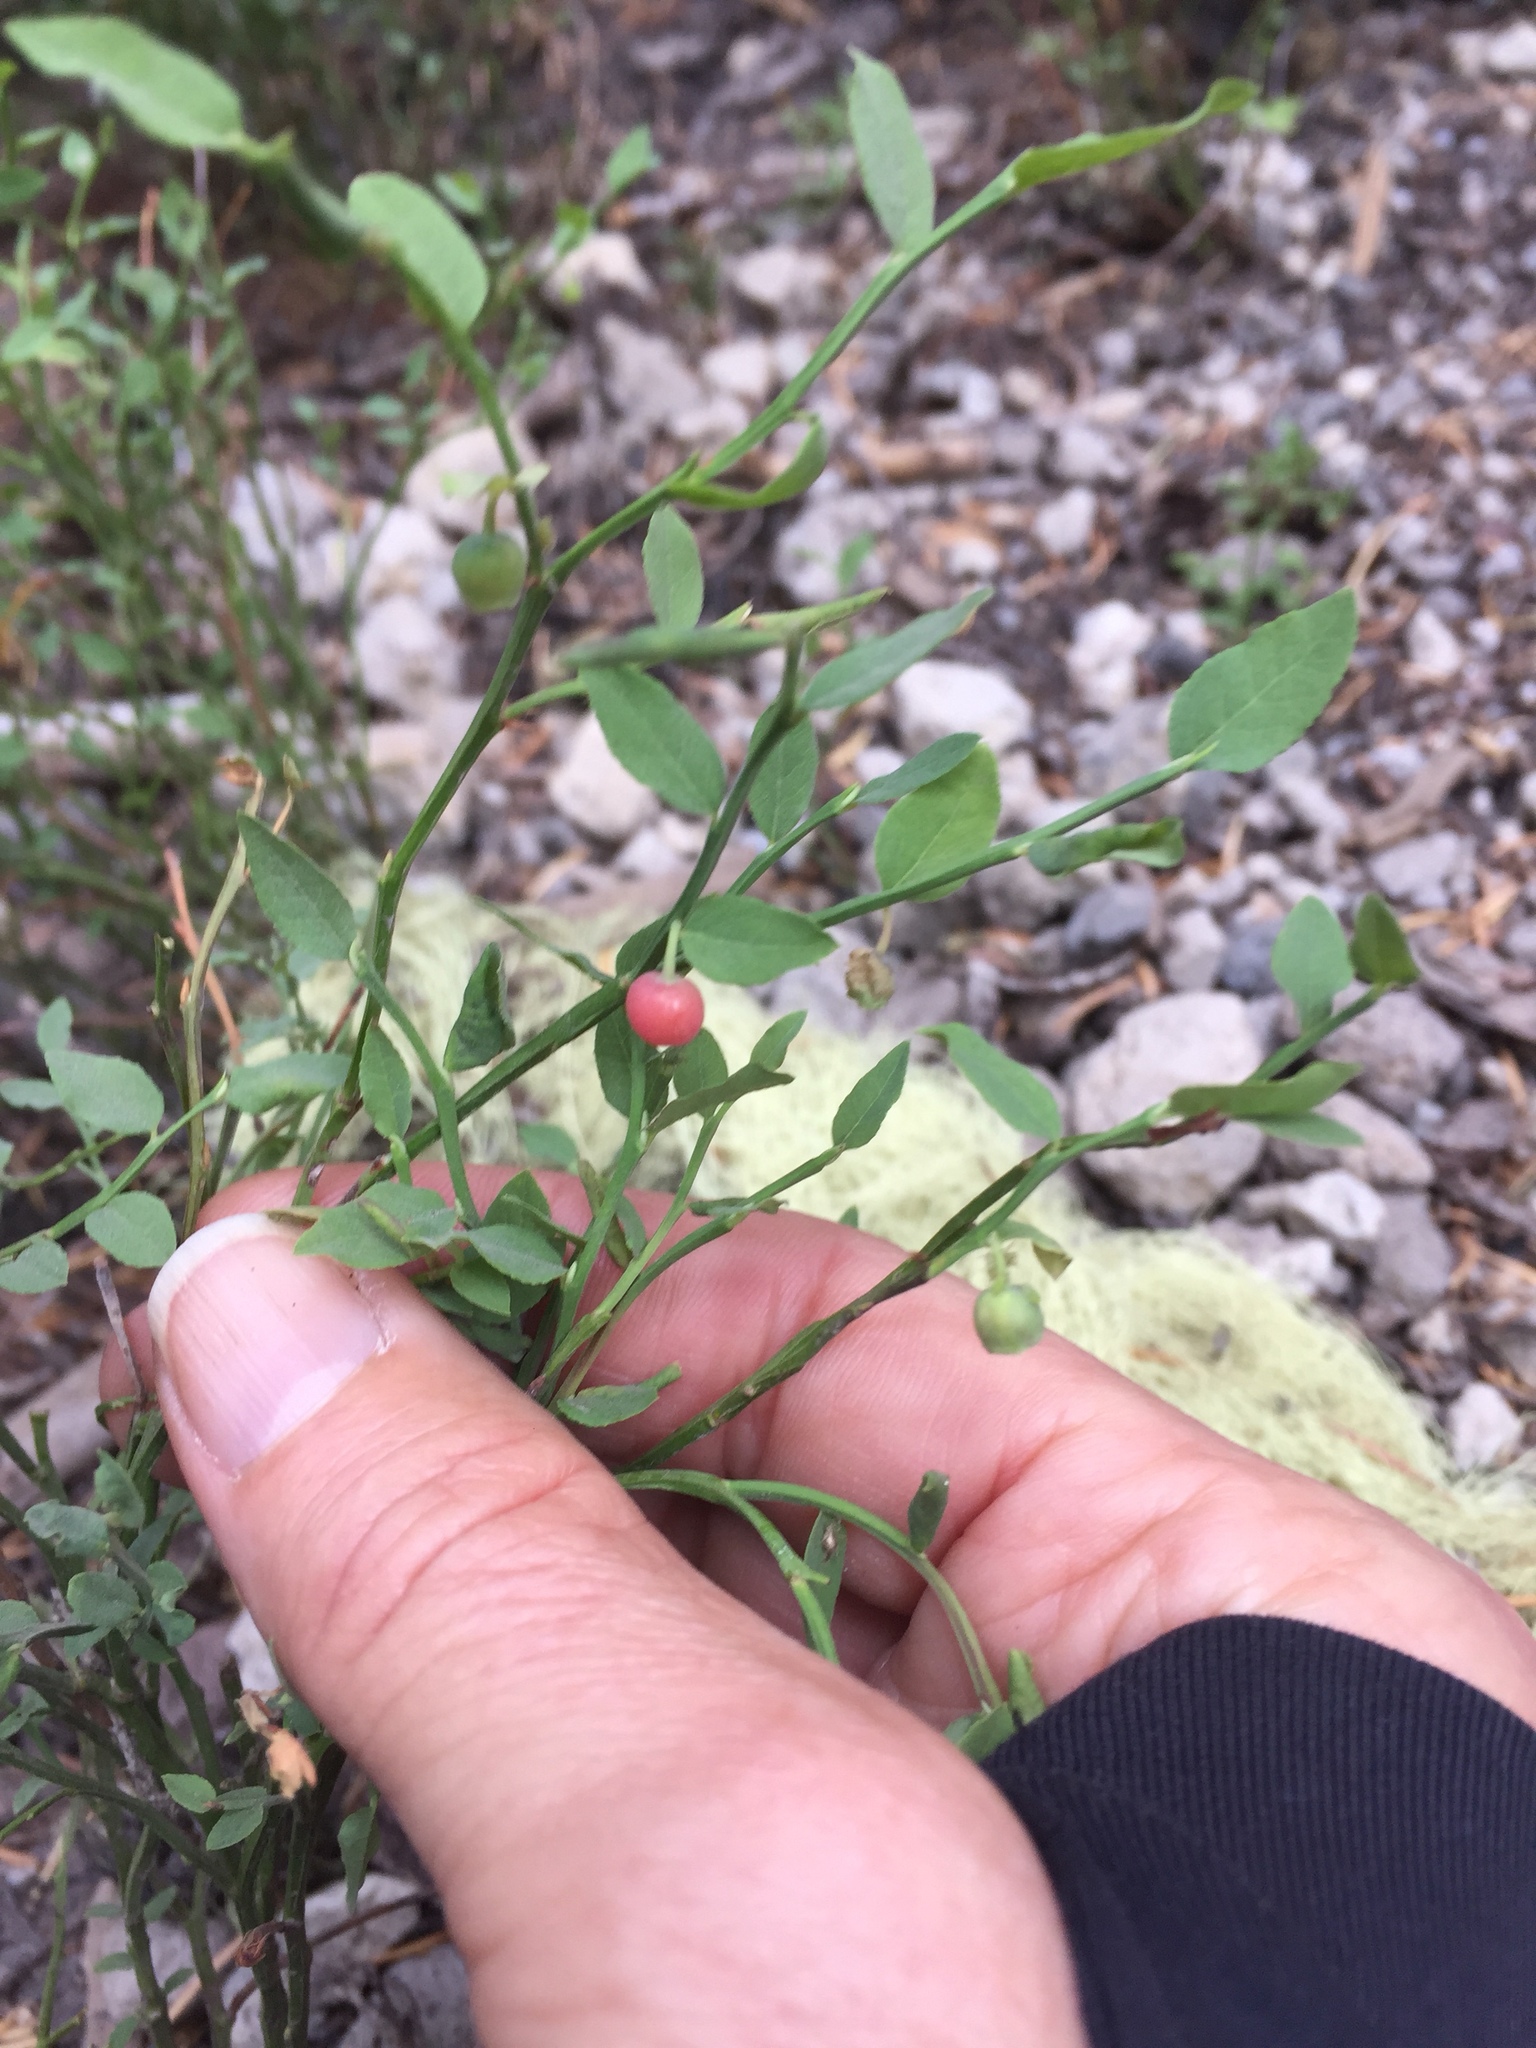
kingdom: Plantae
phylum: Tracheophyta
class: Magnoliopsida
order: Ericales
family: Ericaceae
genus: Vaccinium
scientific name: Vaccinium scoparium
